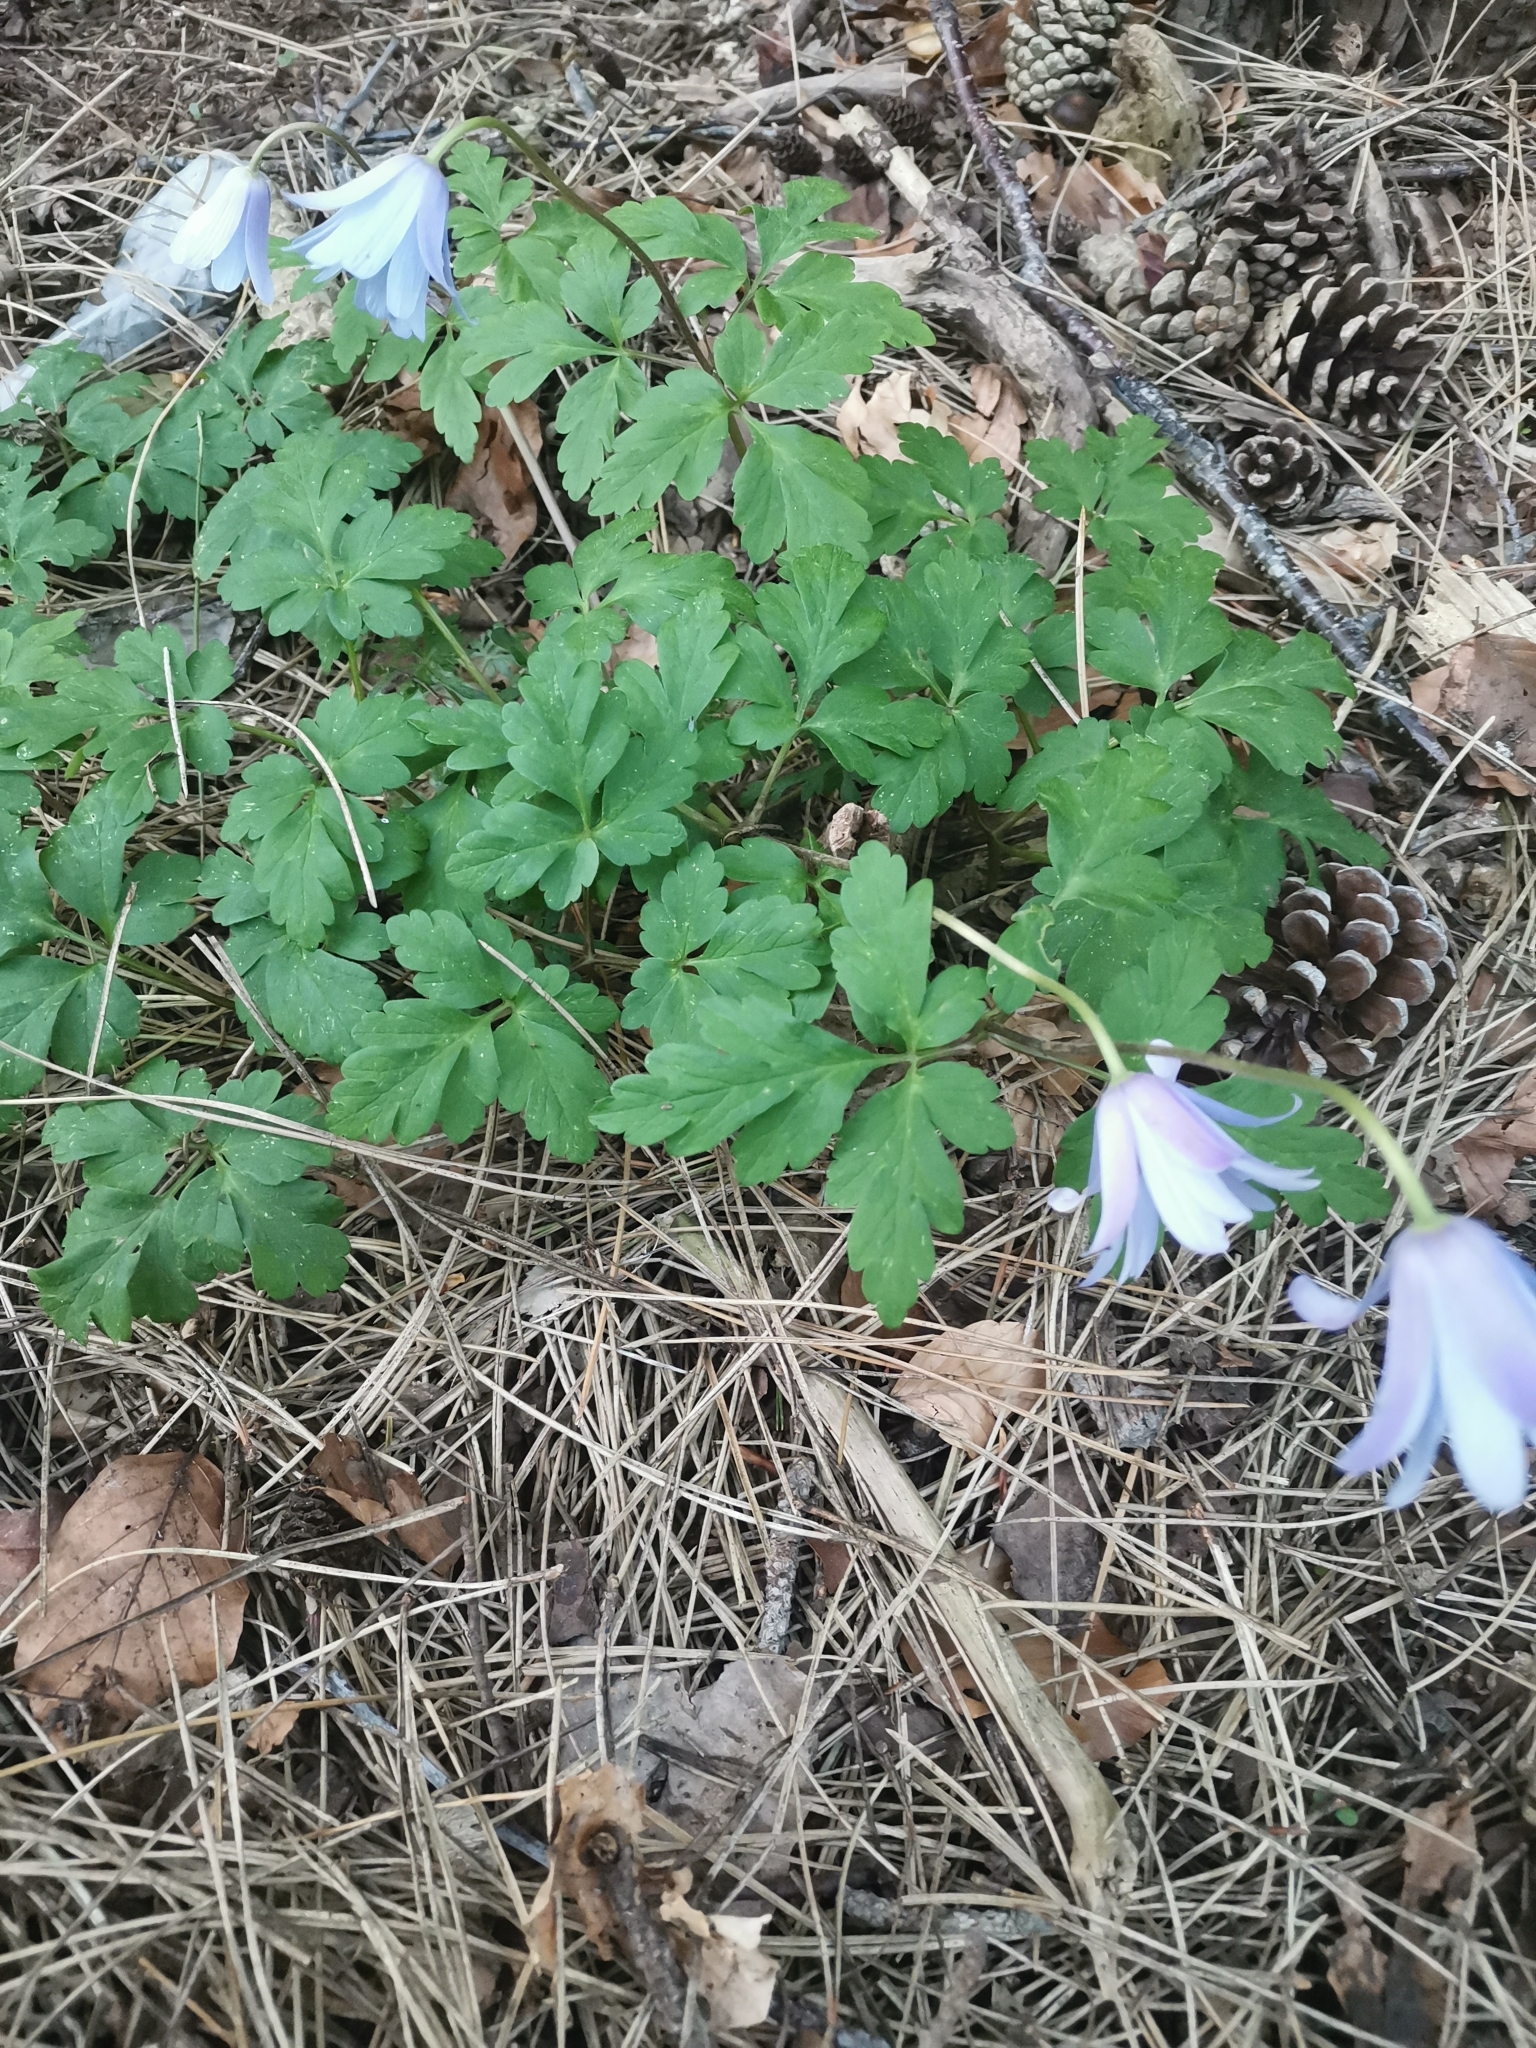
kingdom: Plantae
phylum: Tracheophyta
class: Magnoliopsida
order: Ranunculales
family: Ranunculaceae
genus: Anemone
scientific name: Anemone apennina
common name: Blue anemone
